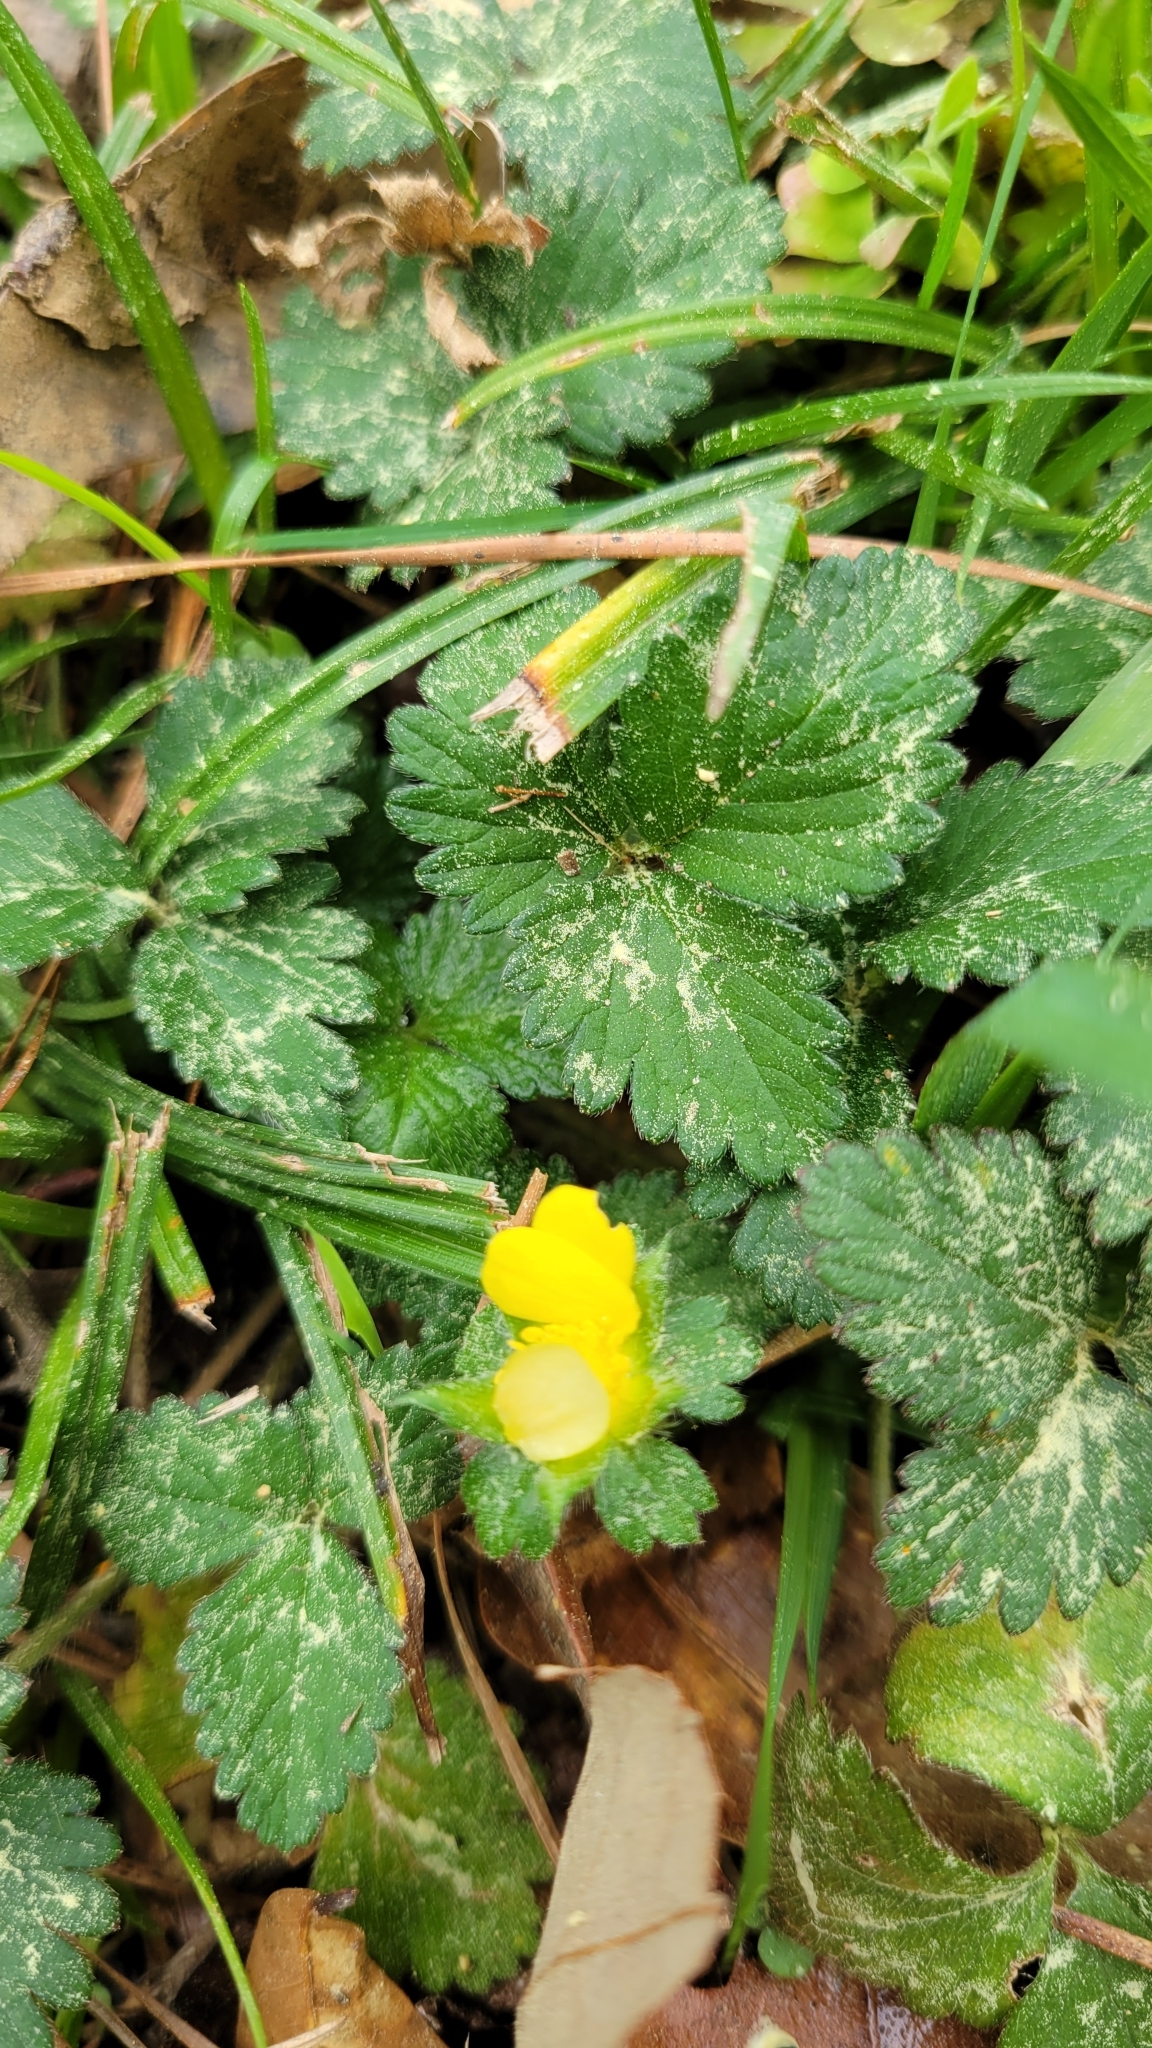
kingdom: Plantae
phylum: Tracheophyta
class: Magnoliopsida
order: Rosales
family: Rosaceae
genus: Potentilla
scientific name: Potentilla indica
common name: Yellow-flowered strawberry
